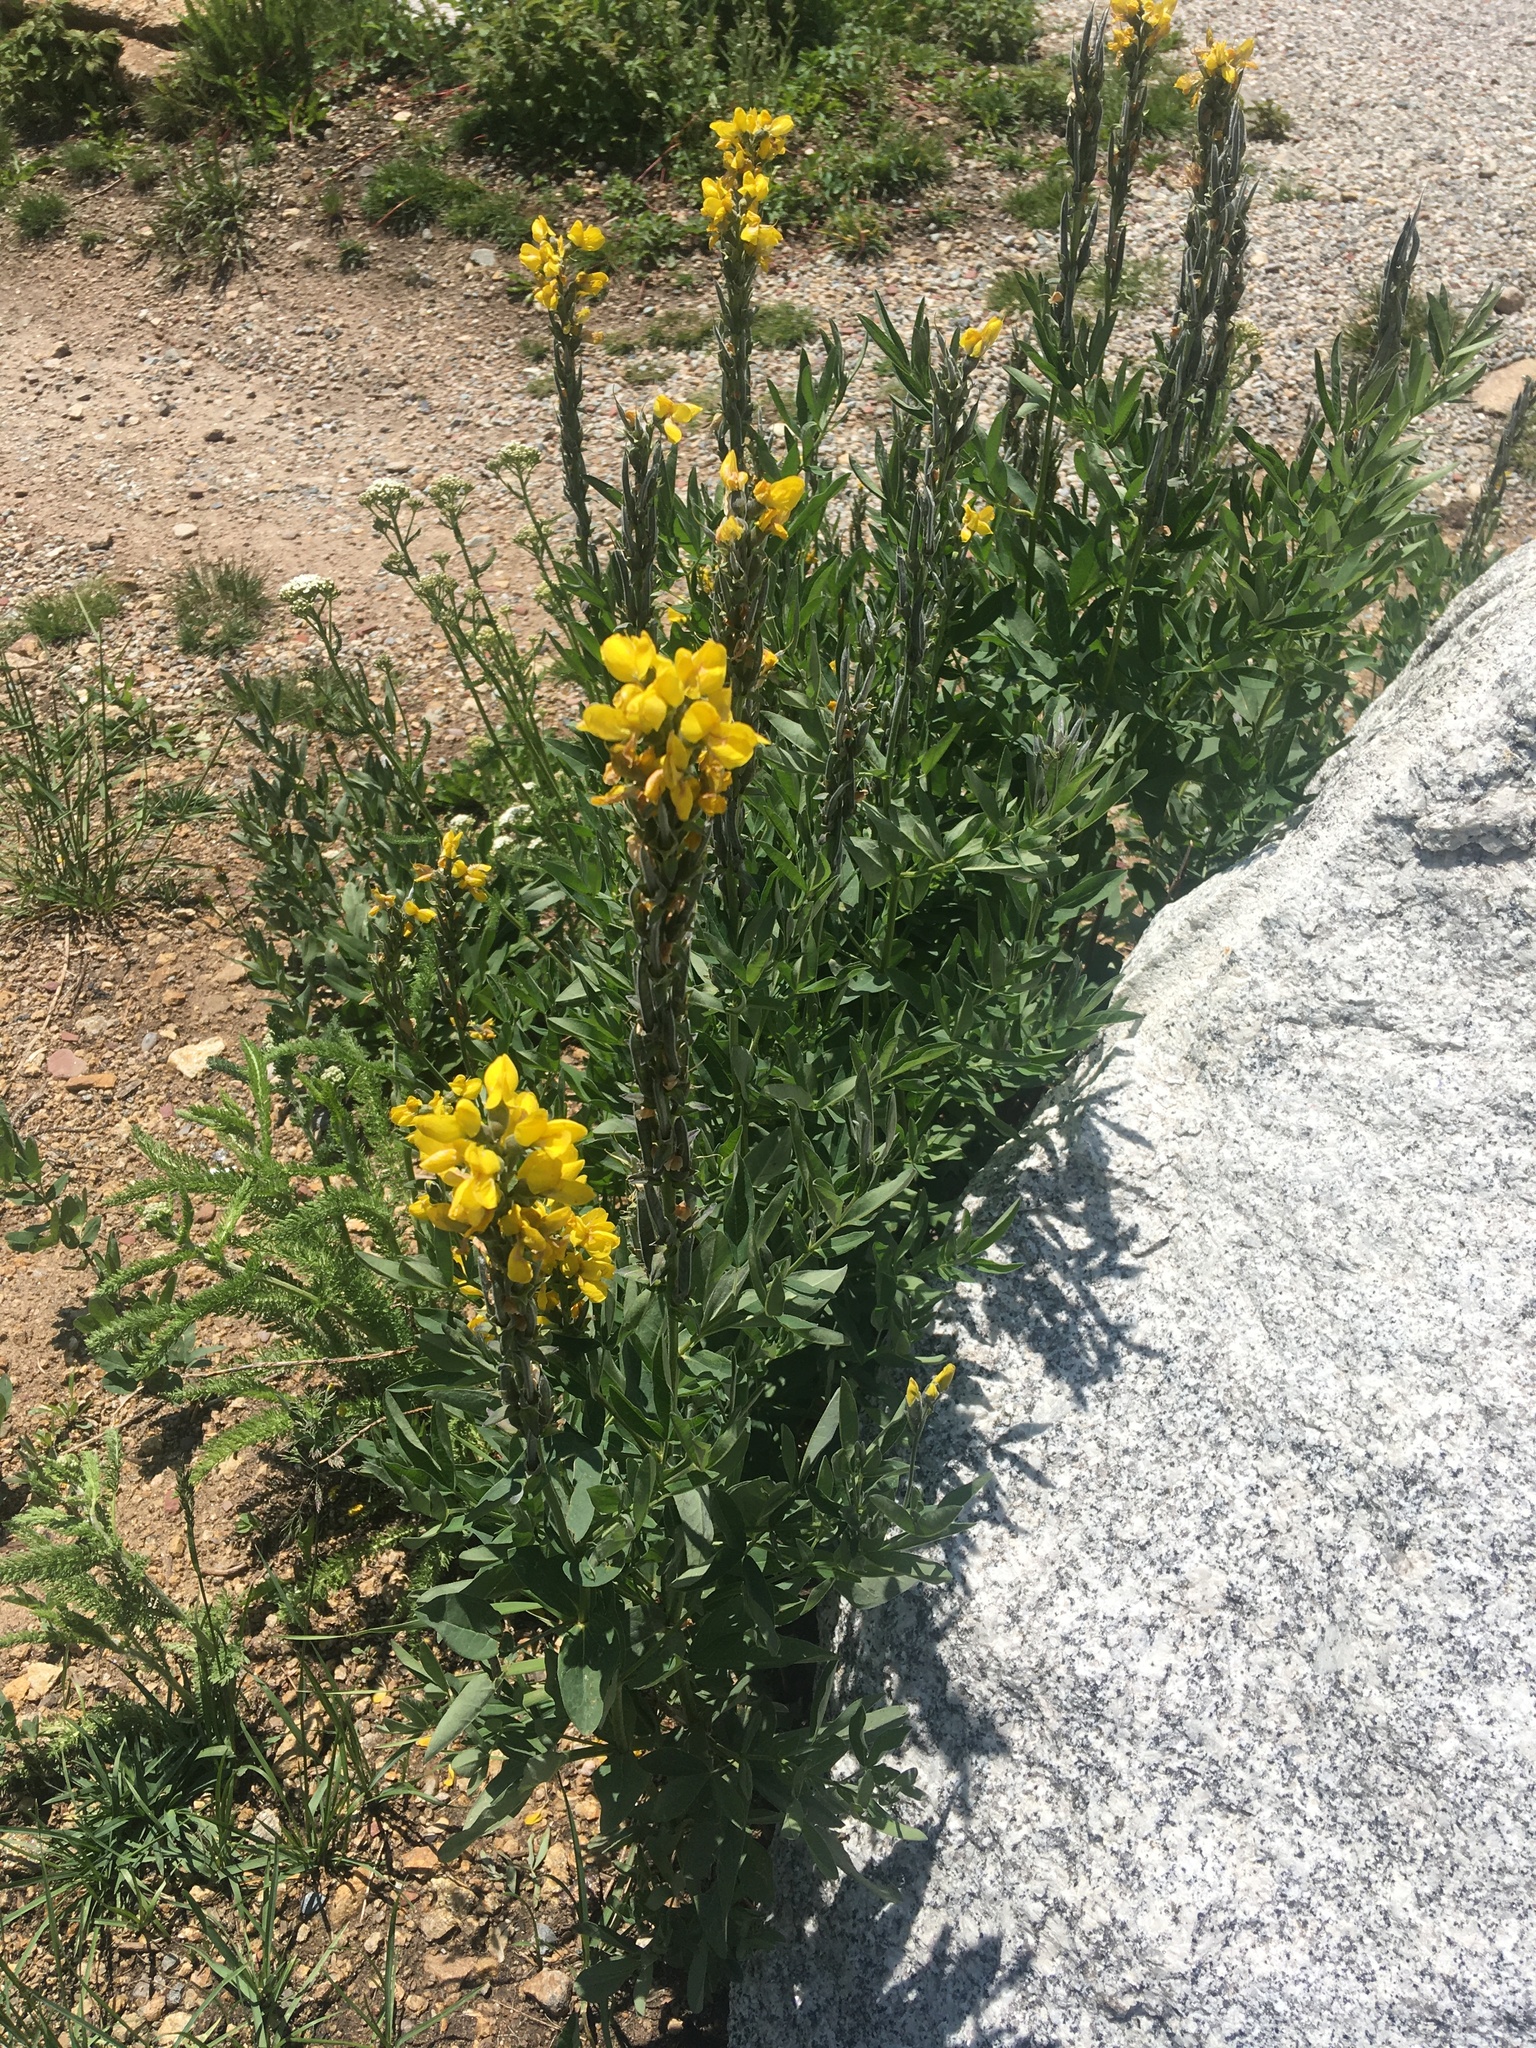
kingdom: Plantae
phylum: Tracheophyta
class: Magnoliopsida
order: Fabales
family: Fabaceae
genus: Thermopsis
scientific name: Thermopsis montana
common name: False lupin
